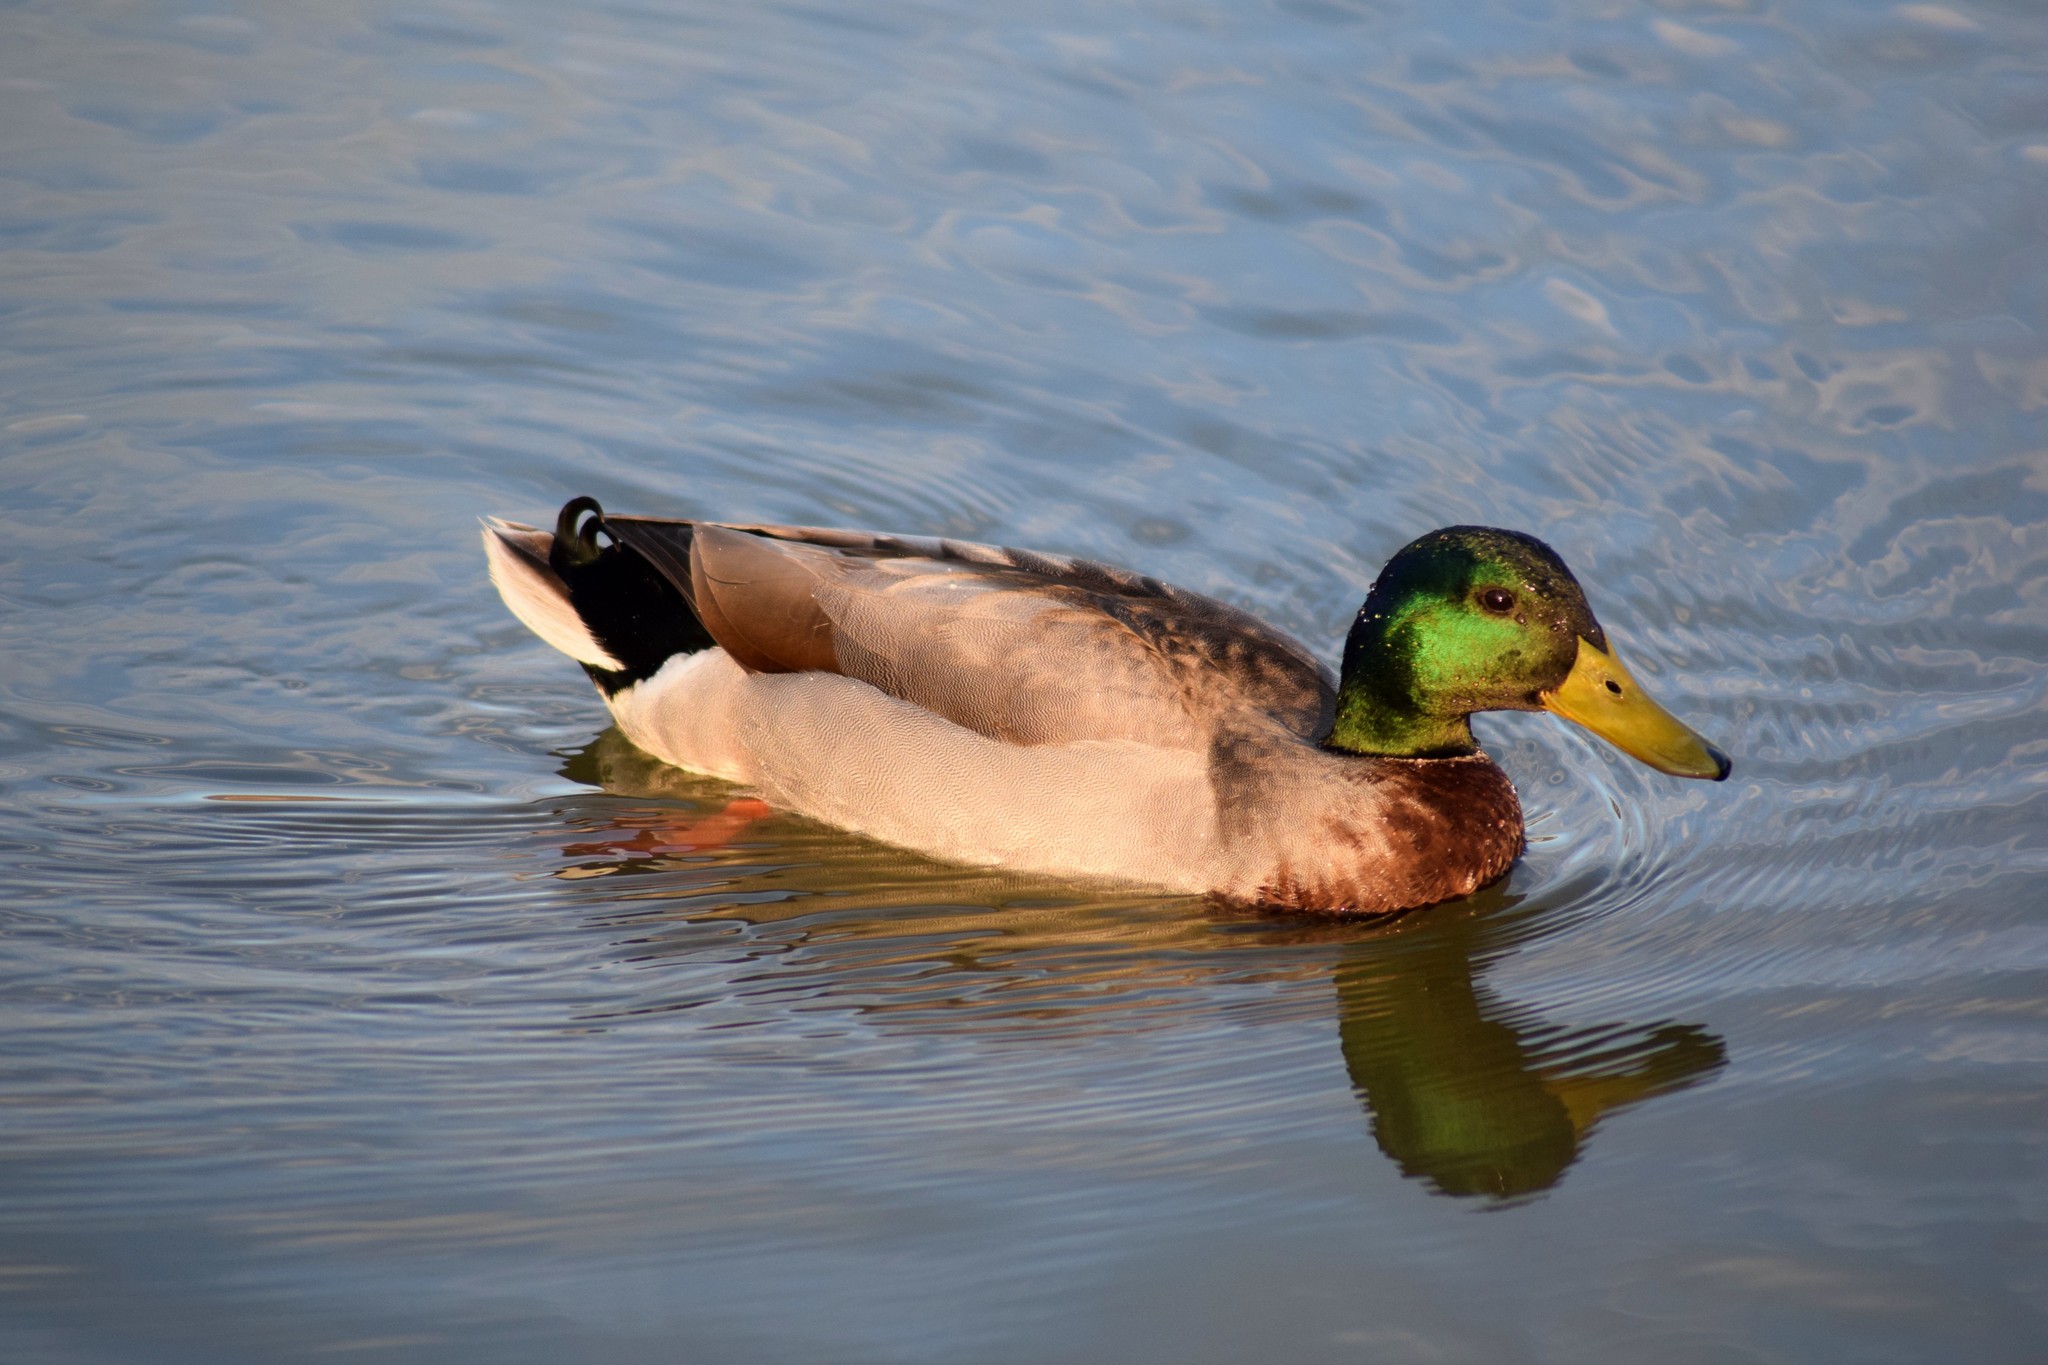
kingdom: Animalia
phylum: Chordata
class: Aves
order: Anseriformes
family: Anatidae
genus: Anas
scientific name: Anas platyrhynchos
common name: Mallard
